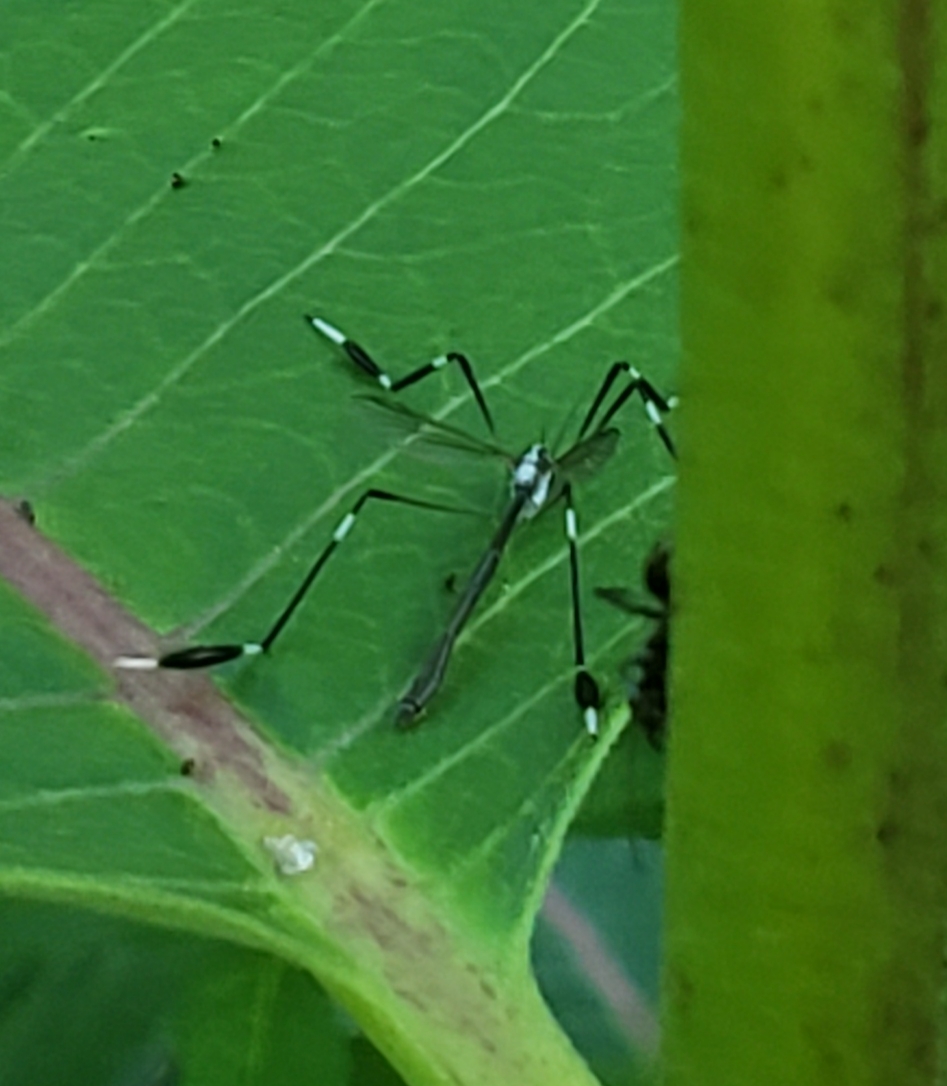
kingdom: Animalia
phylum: Arthropoda
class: Insecta
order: Diptera
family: Ptychopteridae
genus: Bittacomorpha
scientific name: Bittacomorpha clavipes
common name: Eastern phantom crane fly
